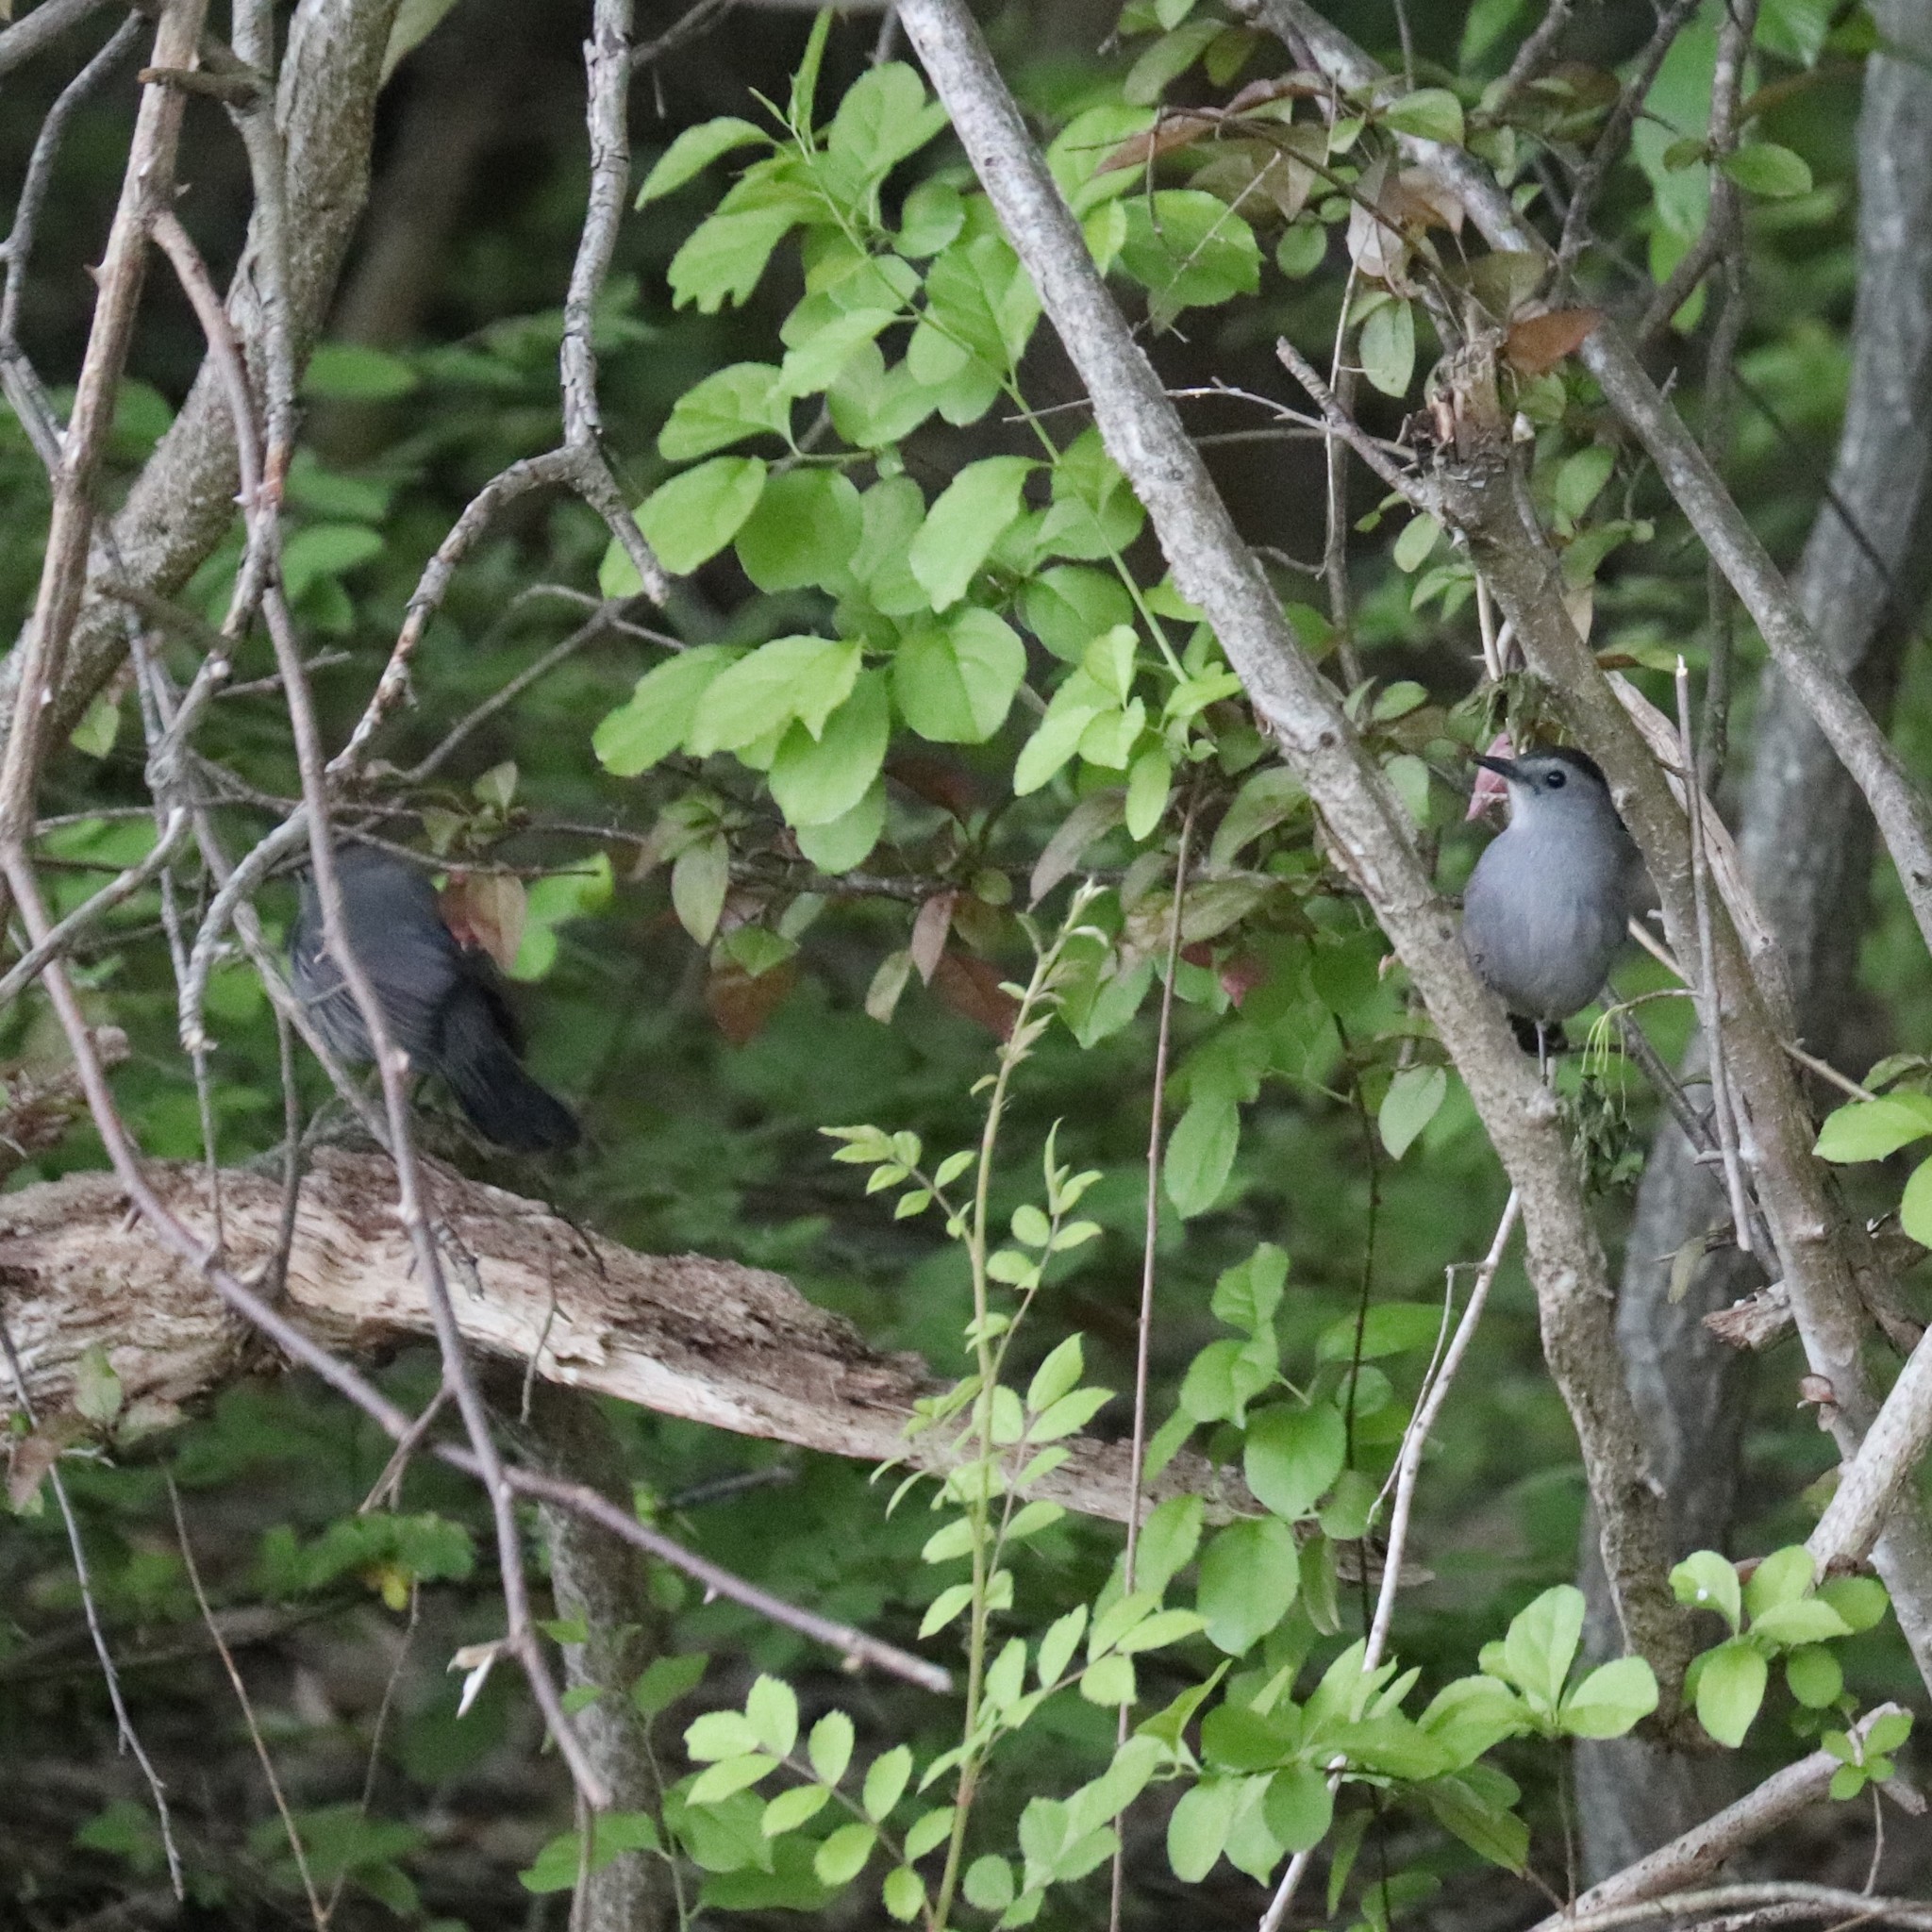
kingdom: Animalia
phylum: Chordata
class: Aves
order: Passeriformes
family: Mimidae
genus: Dumetella
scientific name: Dumetella carolinensis
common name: Gray catbird
